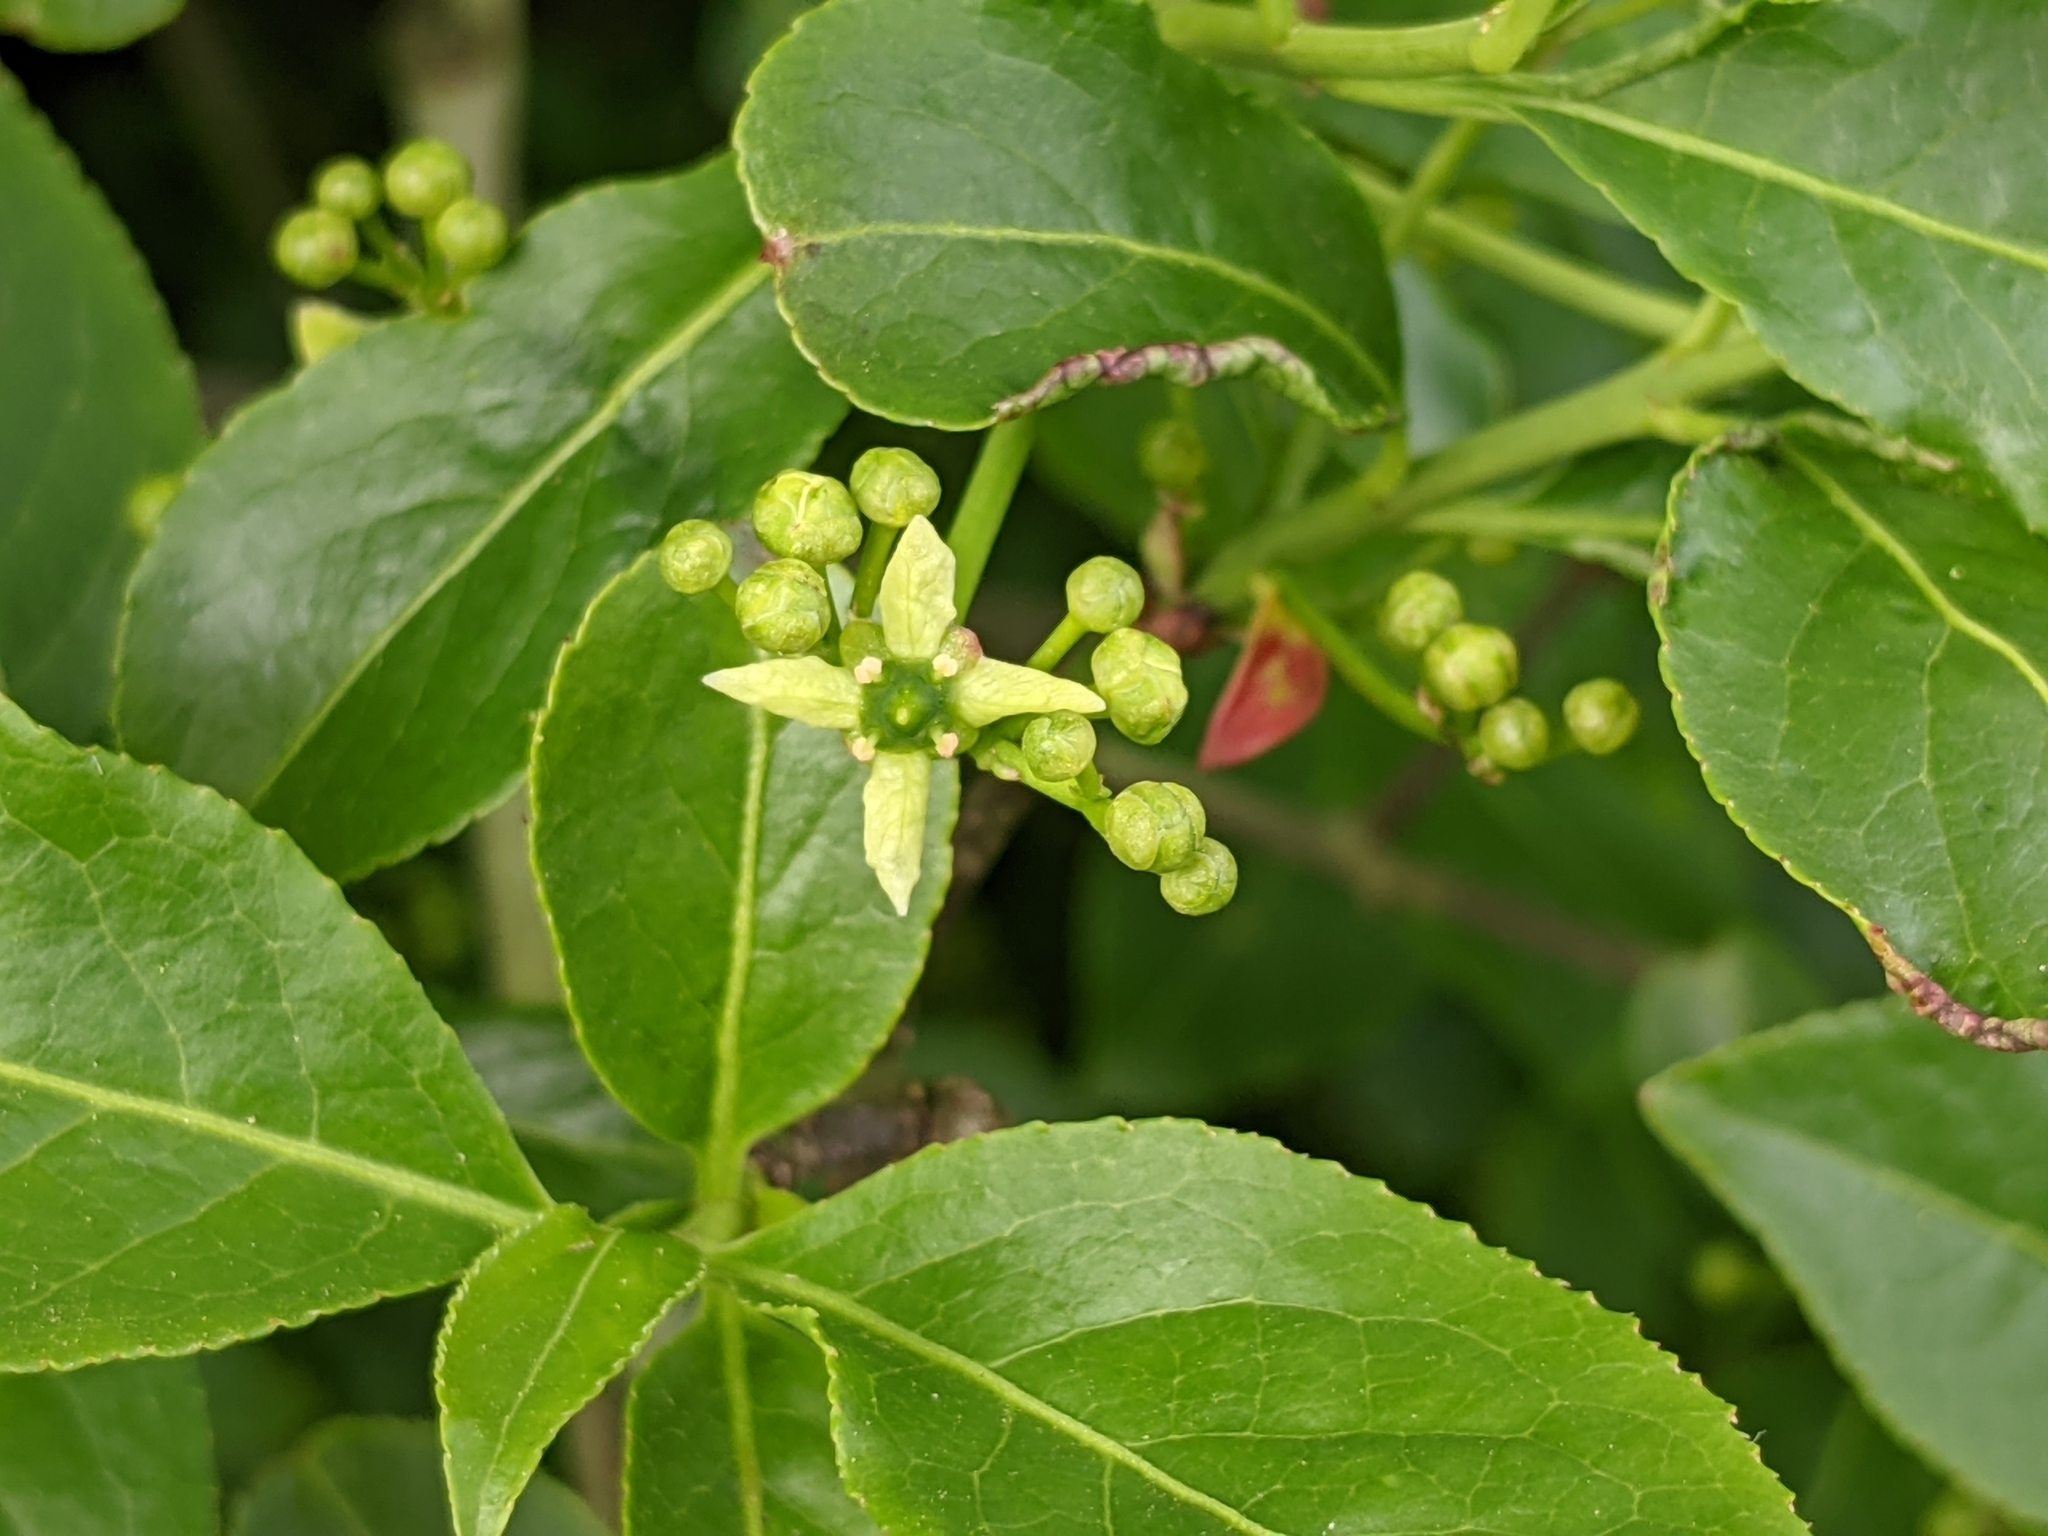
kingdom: Plantae
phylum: Tracheophyta
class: Magnoliopsida
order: Celastrales
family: Celastraceae
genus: Euonymus
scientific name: Euonymus europaeus
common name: Spindle
